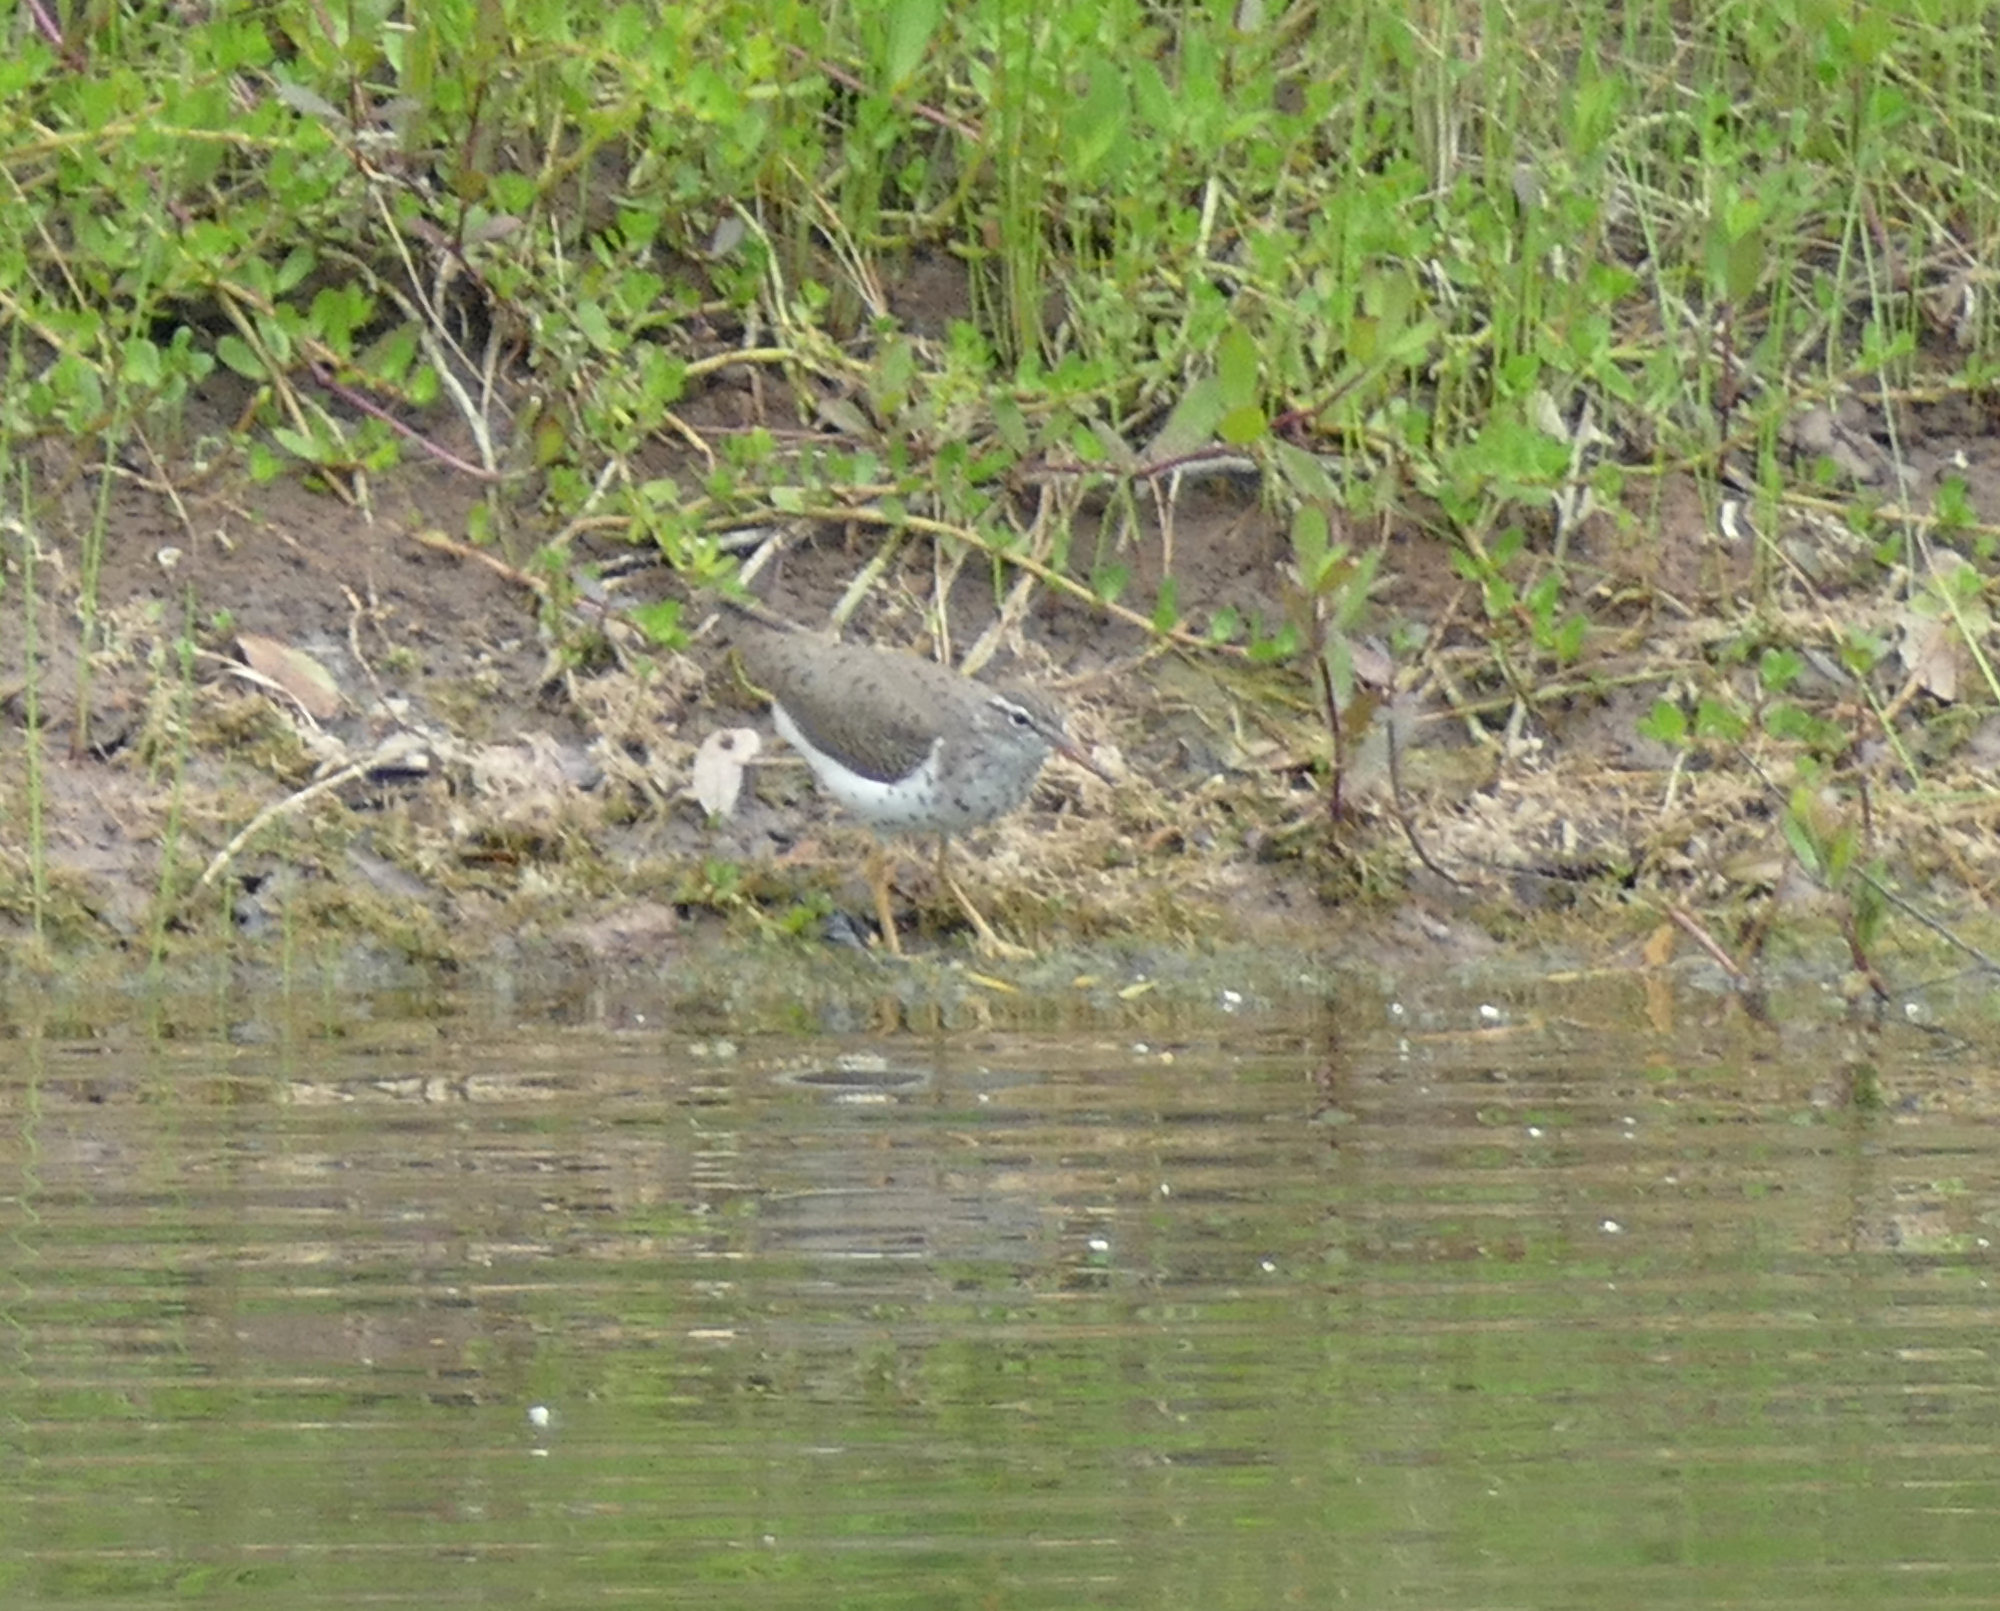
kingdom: Animalia
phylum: Chordata
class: Aves
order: Charadriiformes
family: Scolopacidae
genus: Actitis
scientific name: Actitis macularius
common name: Spotted sandpiper
